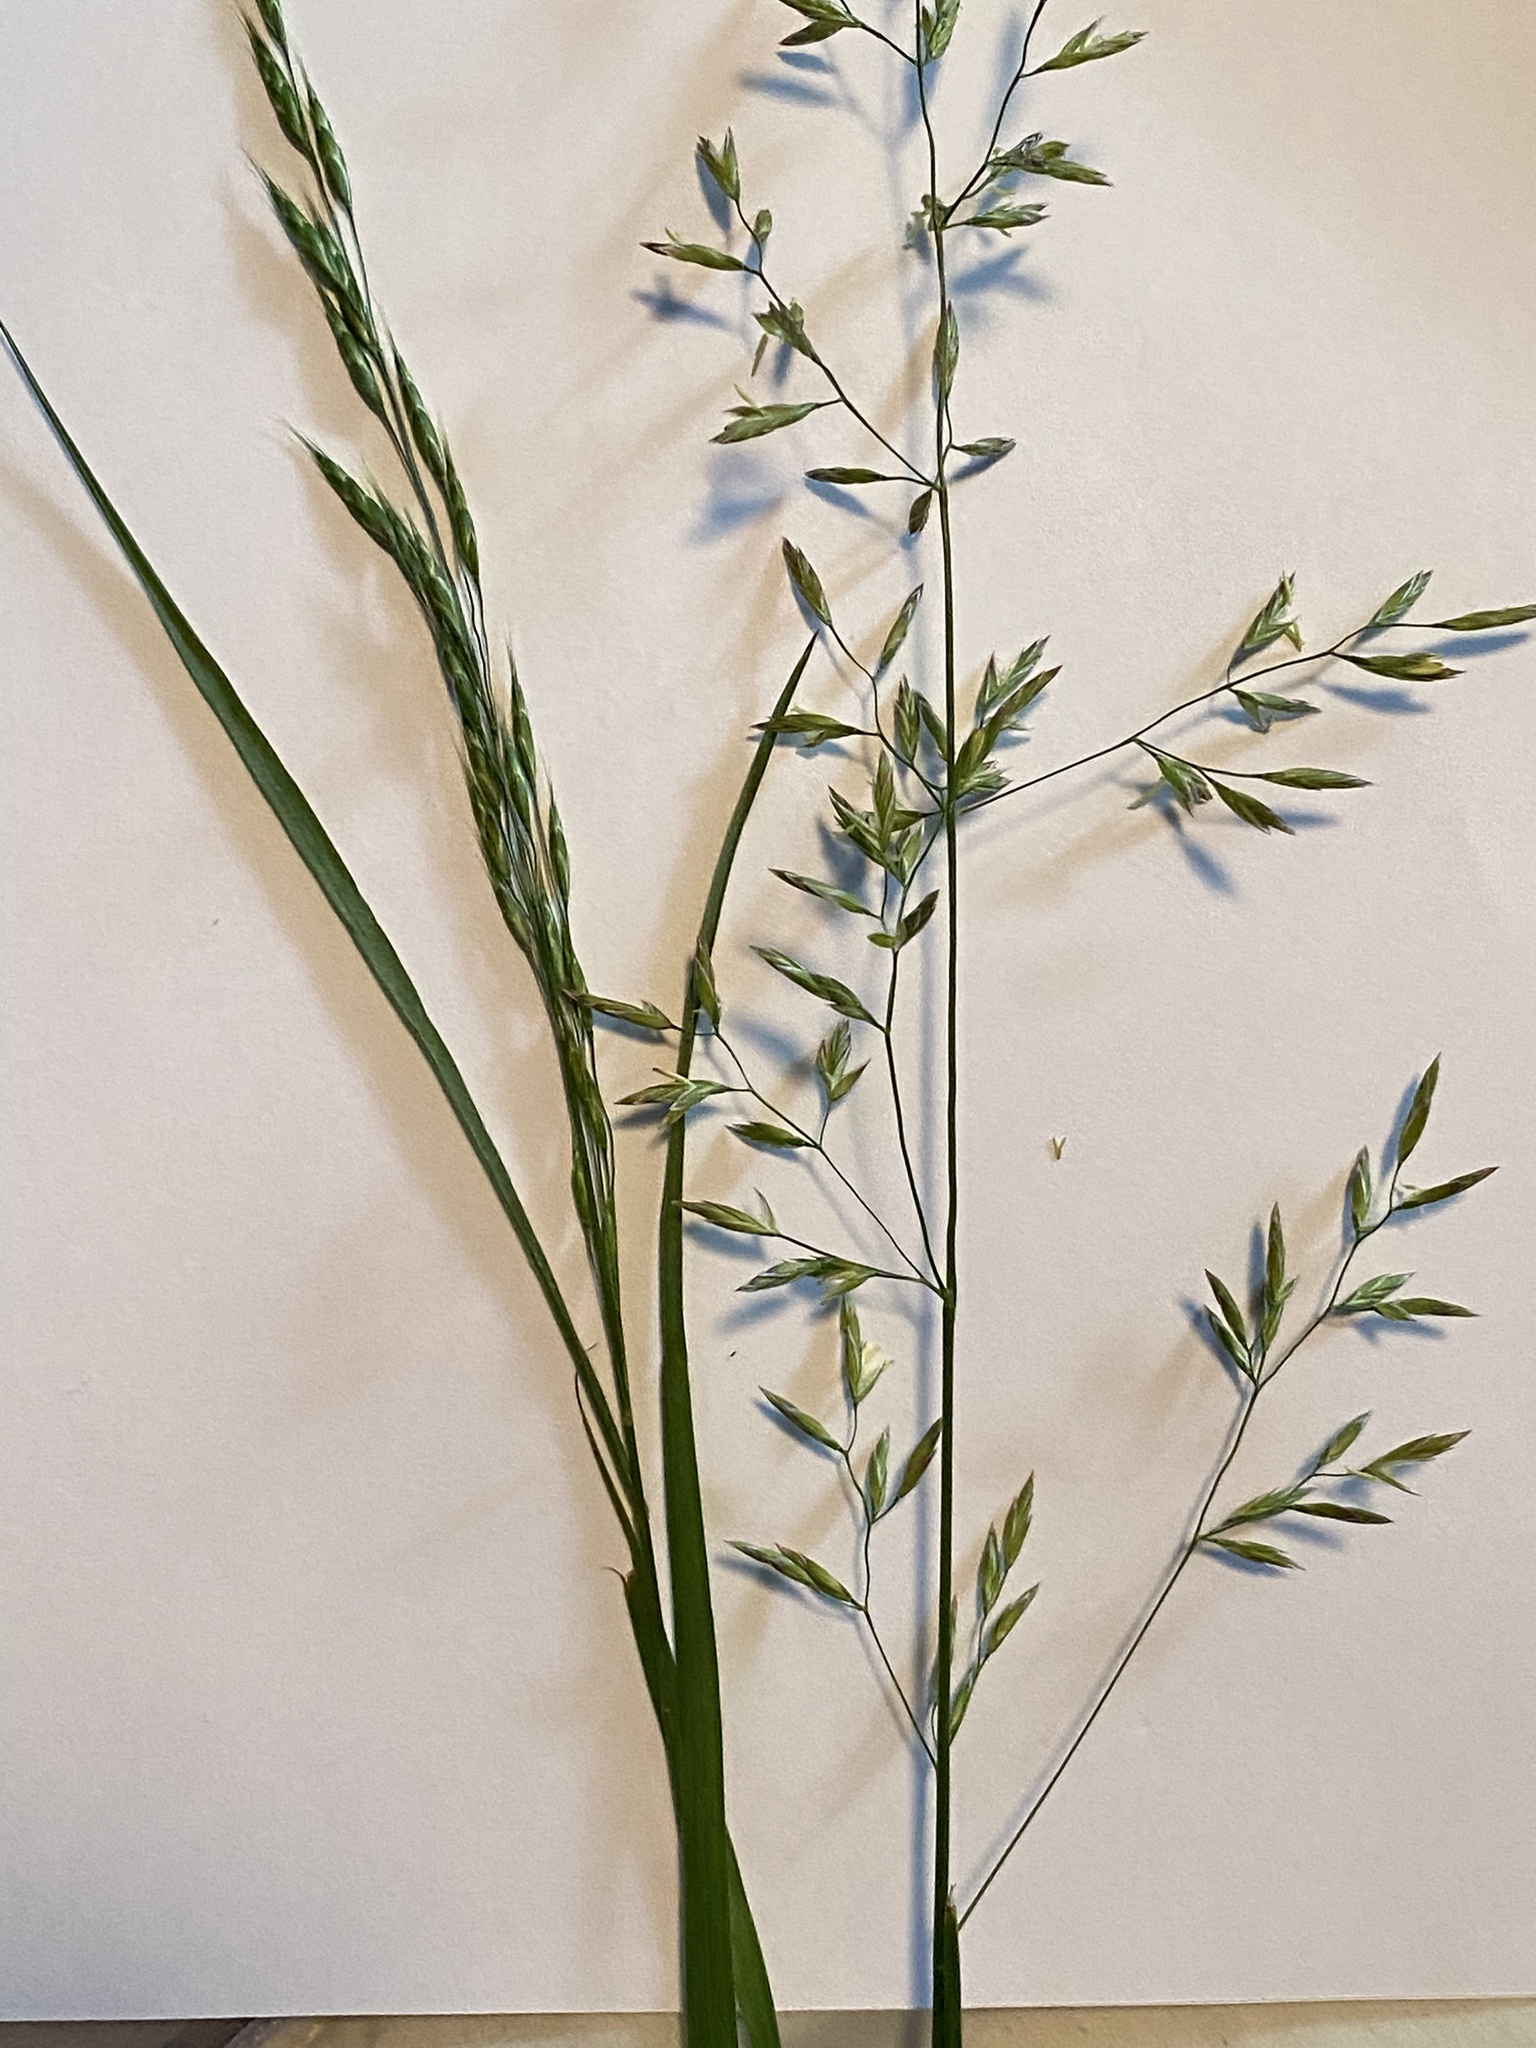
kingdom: Plantae
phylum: Tracheophyta
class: Liliopsida
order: Poales
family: Poaceae
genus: Lolium
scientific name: Lolium arundinaceum
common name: Reed fescue
